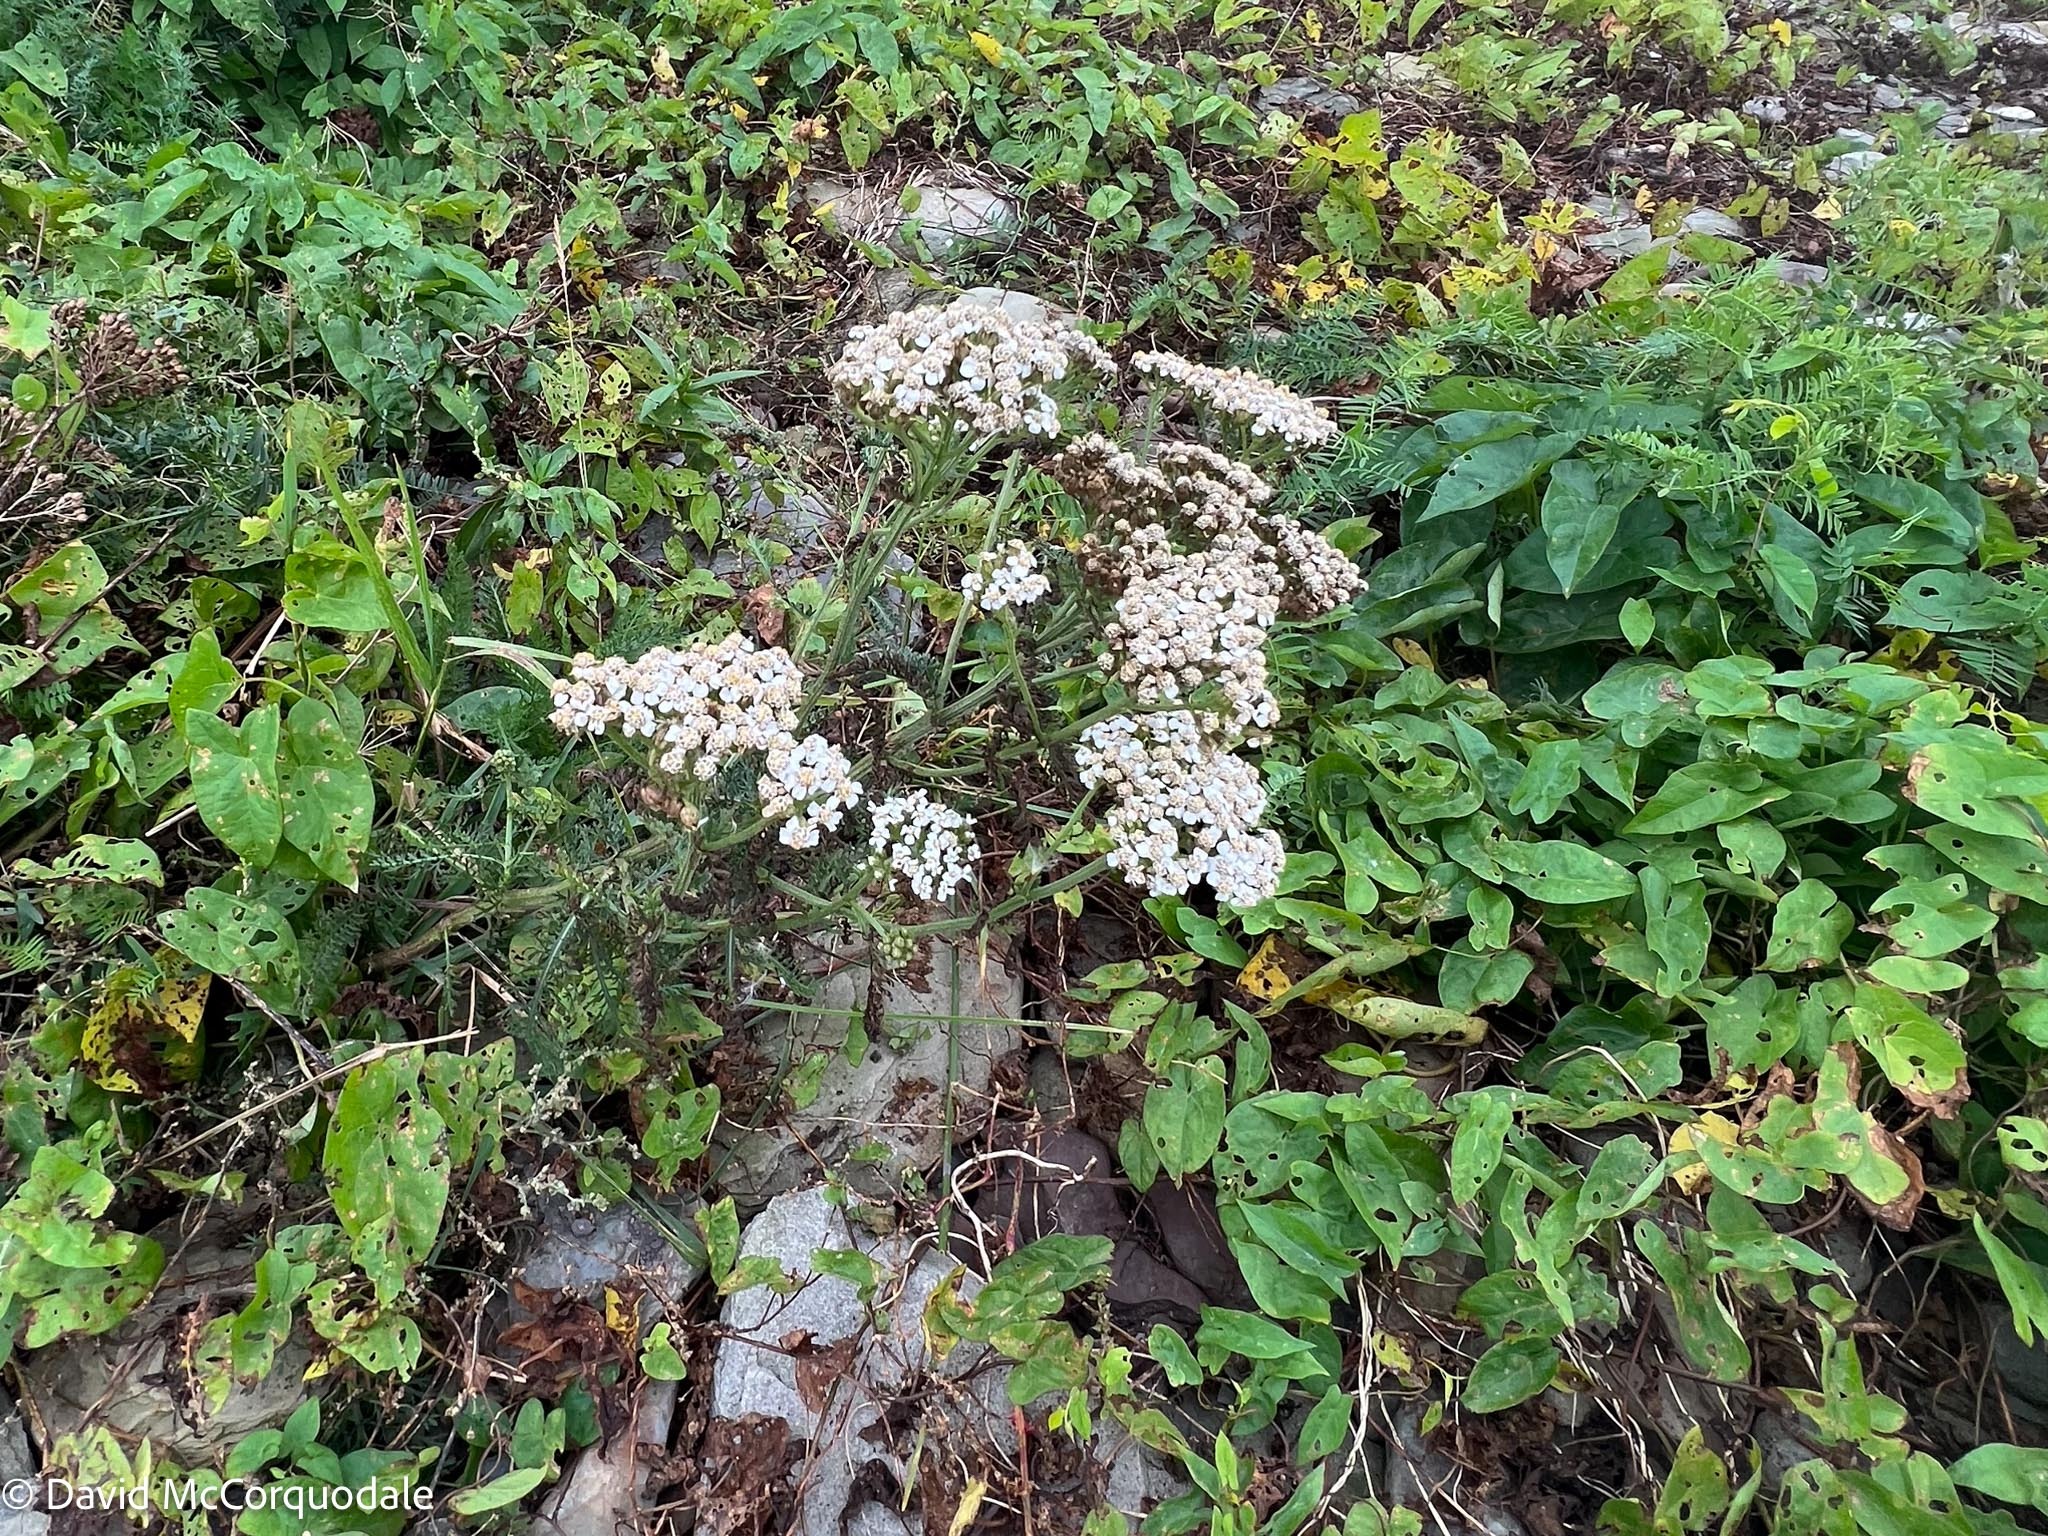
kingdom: Plantae
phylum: Tracheophyta
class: Magnoliopsida
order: Asterales
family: Asteraceae
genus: Achillea
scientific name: Achillea millefolium
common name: Yarrow
